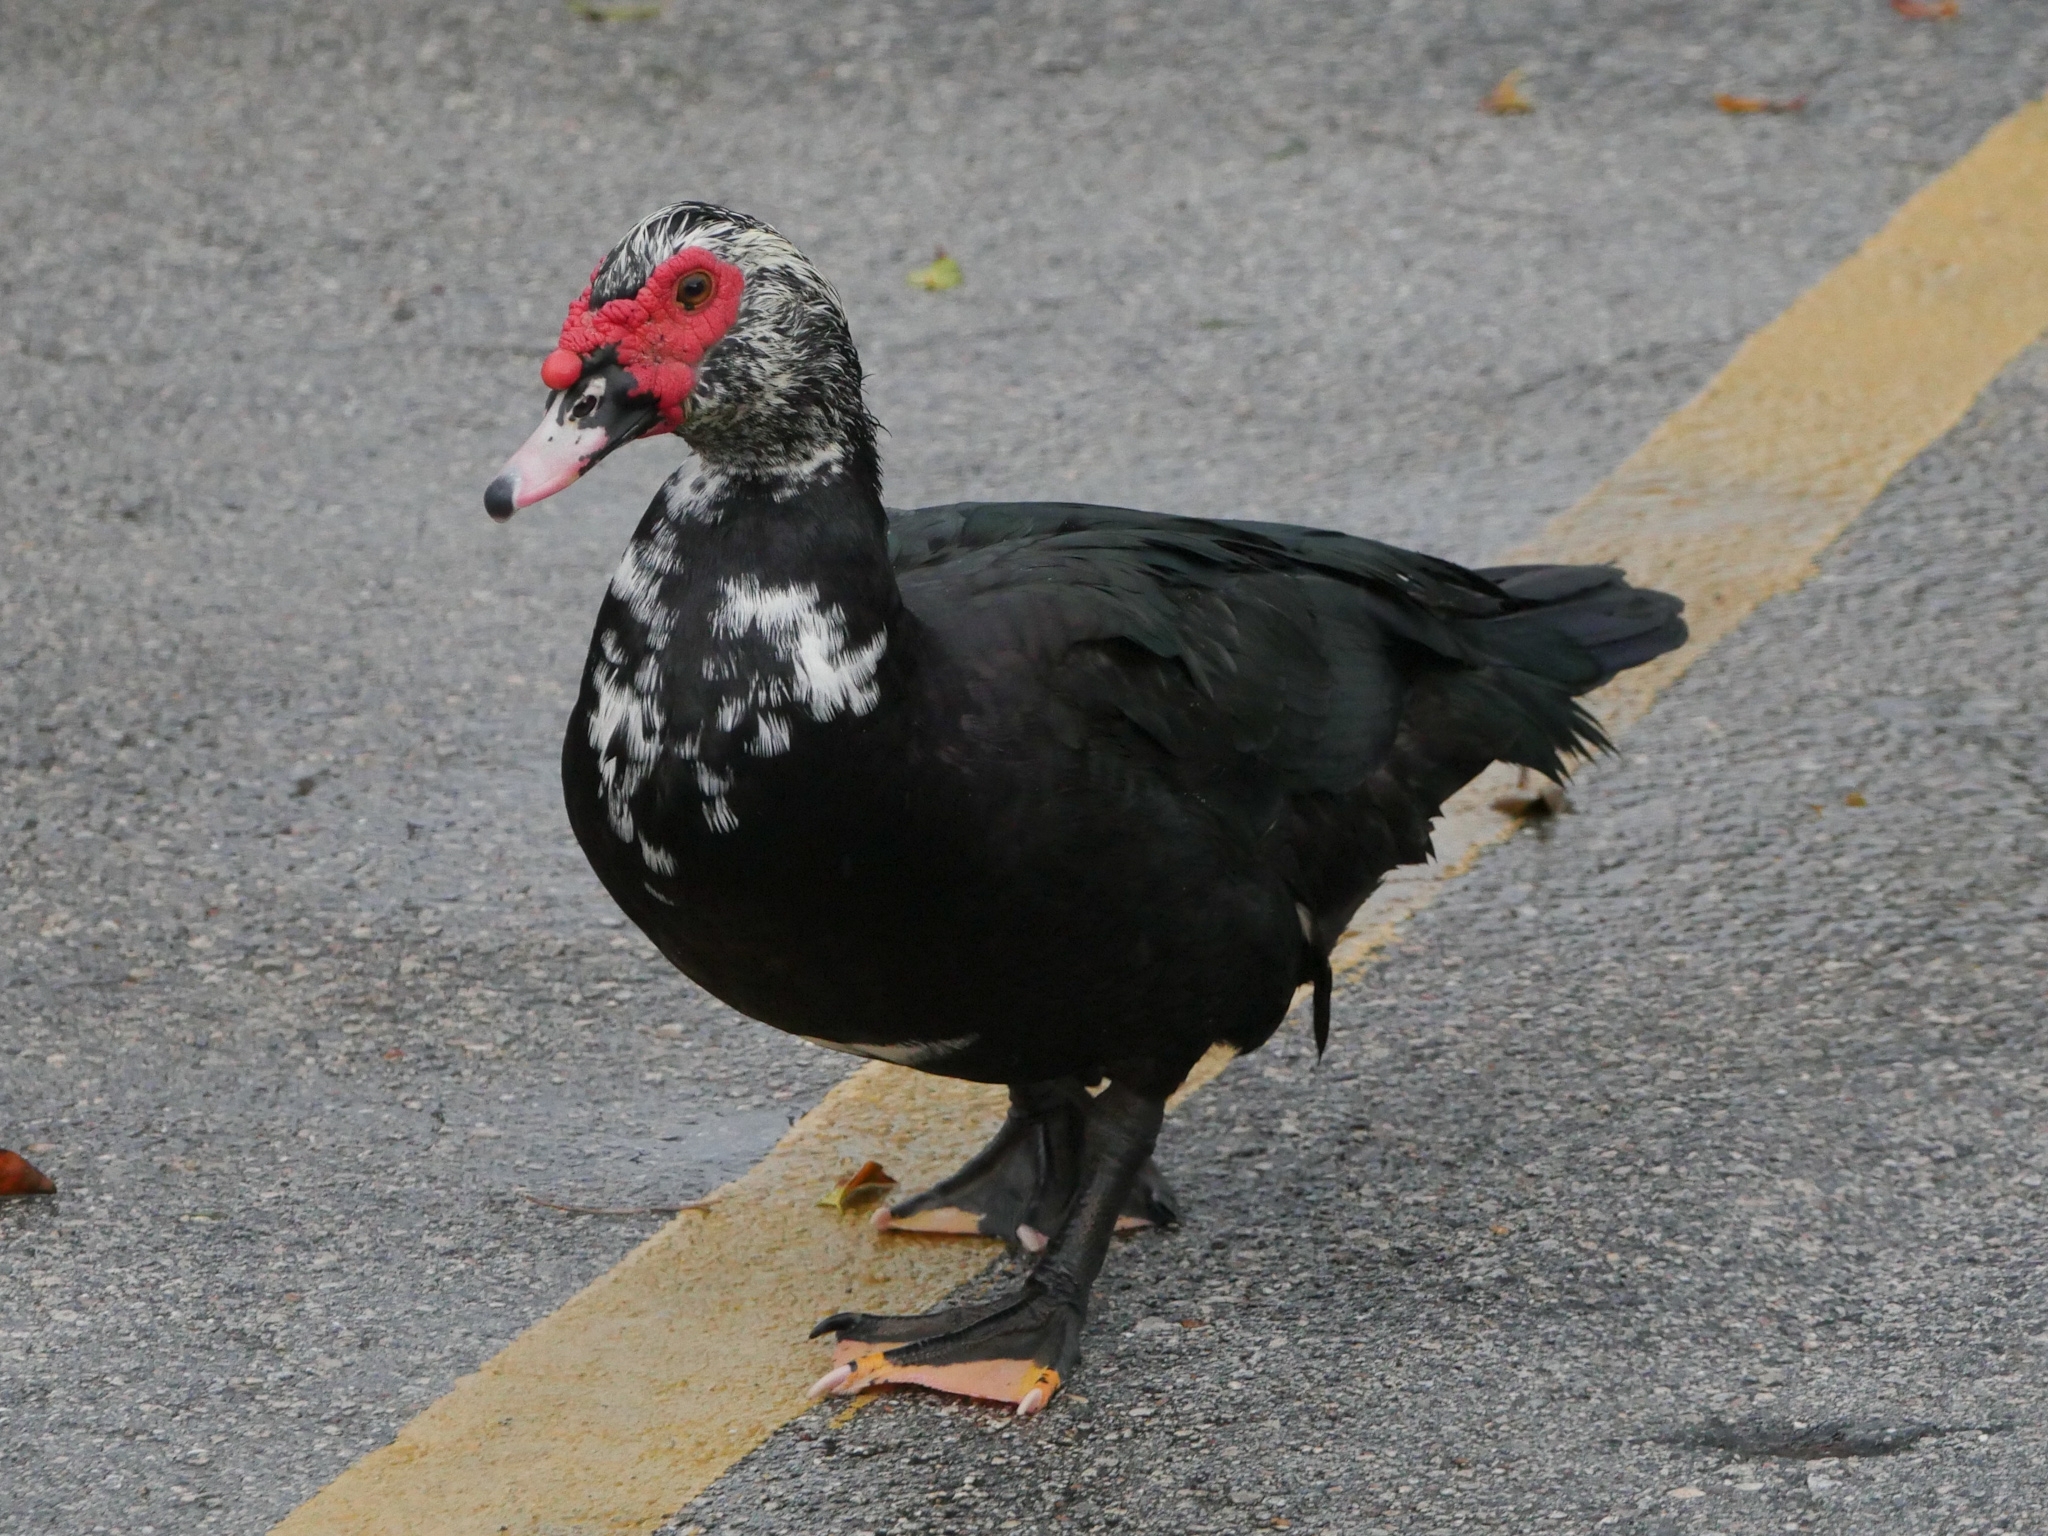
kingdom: Animalia
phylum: Chordata
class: Aves
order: Anseriformes
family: Anatidae
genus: Cairina
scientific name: Cairina moschata
